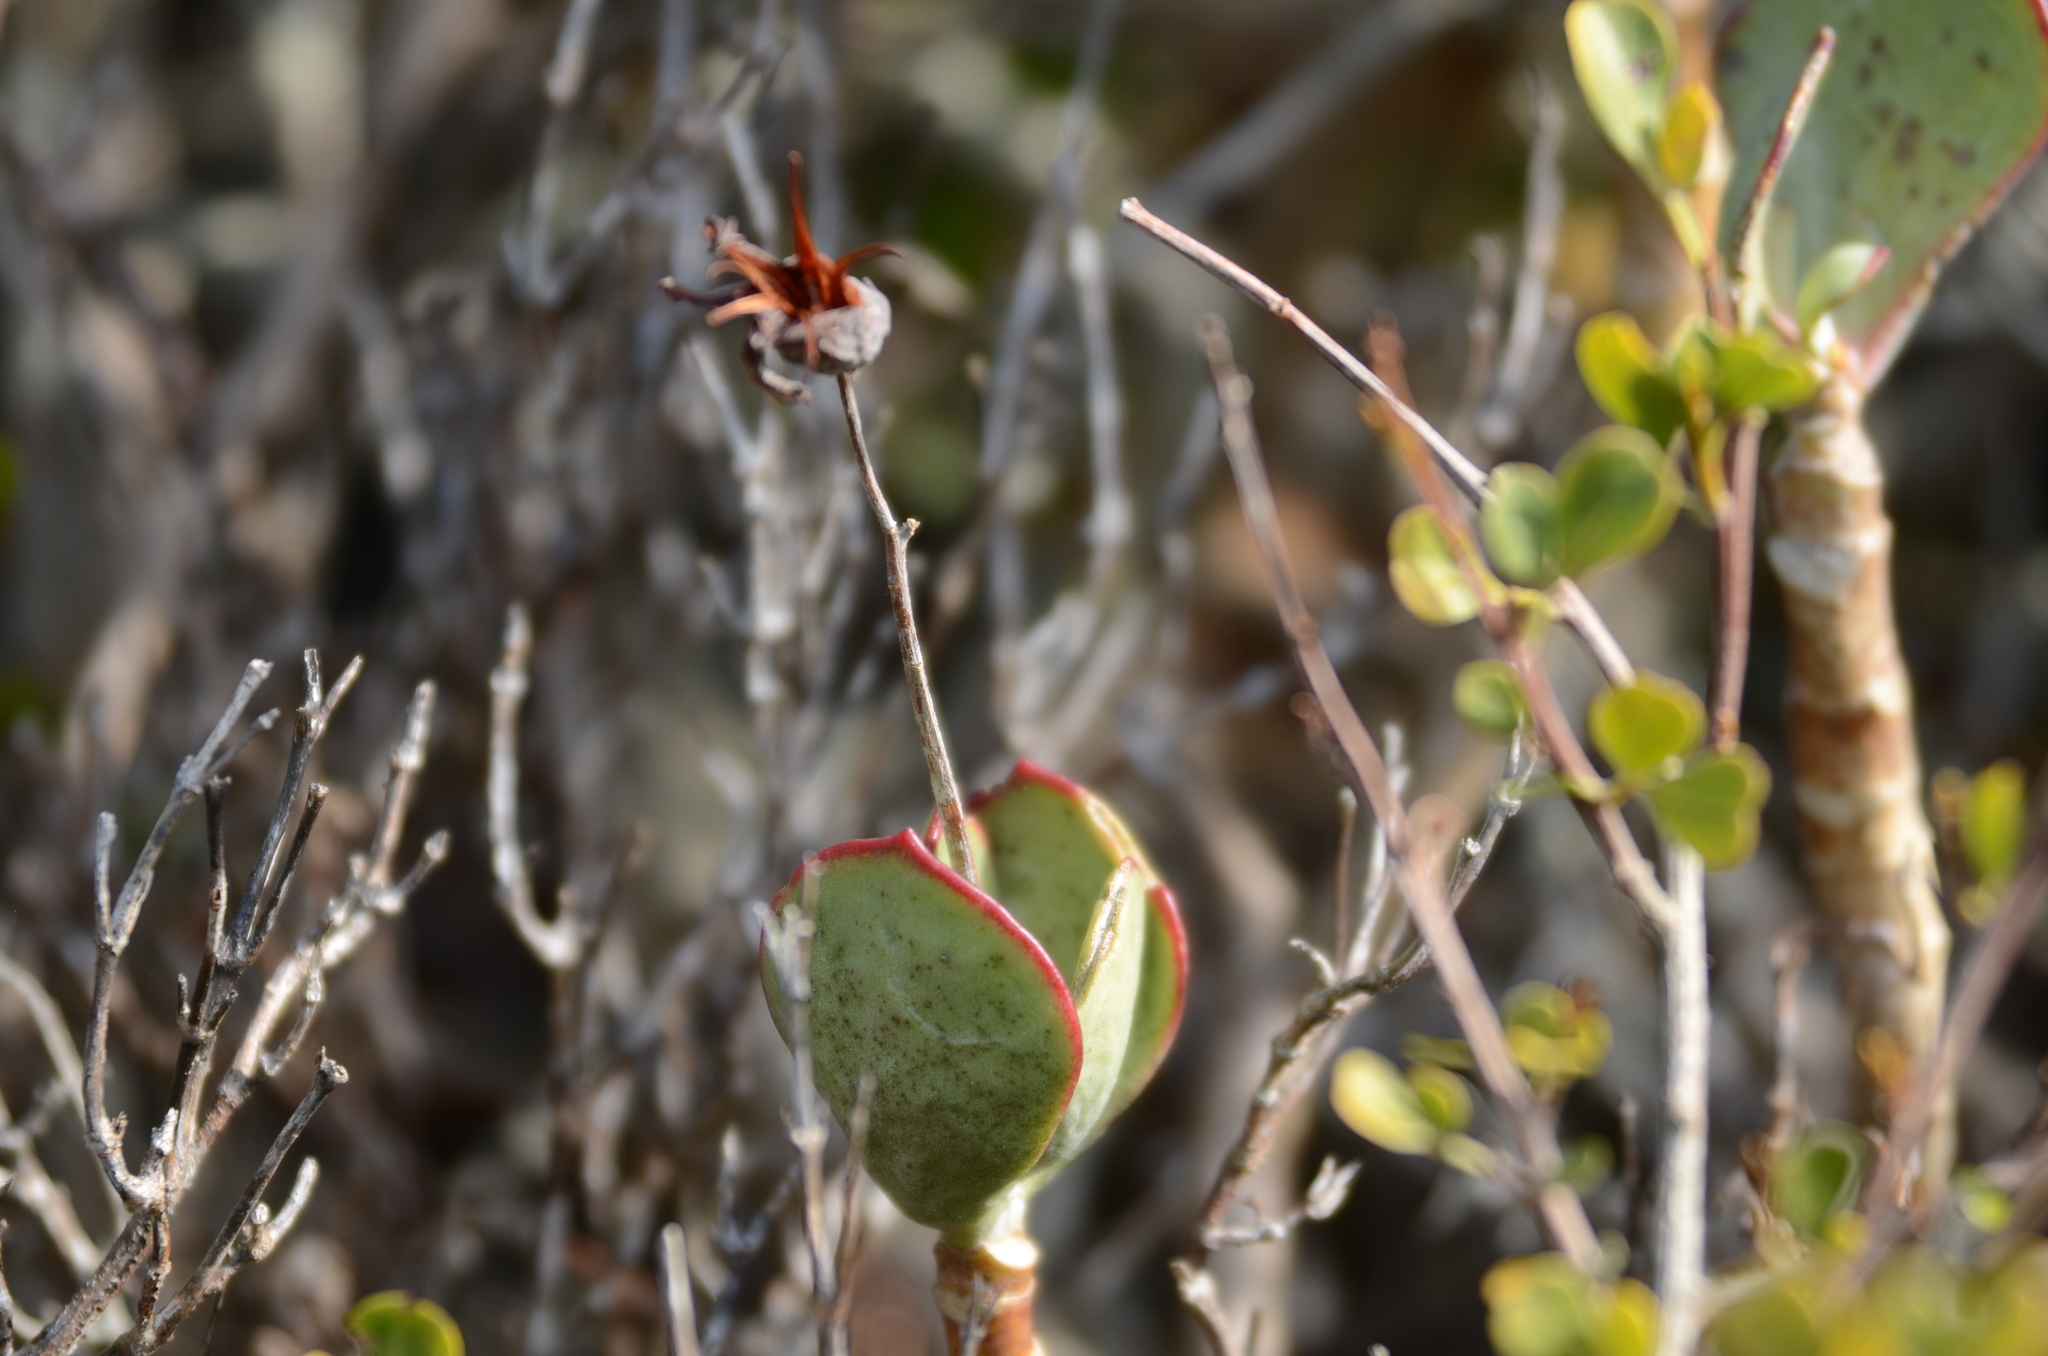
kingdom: Plantae
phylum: Tracheophyta
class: Magnoliopsida
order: Saxifragales
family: Crassulaceae
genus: Cotyledon
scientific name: Cotyledon orbiculata
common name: Pig's ear
